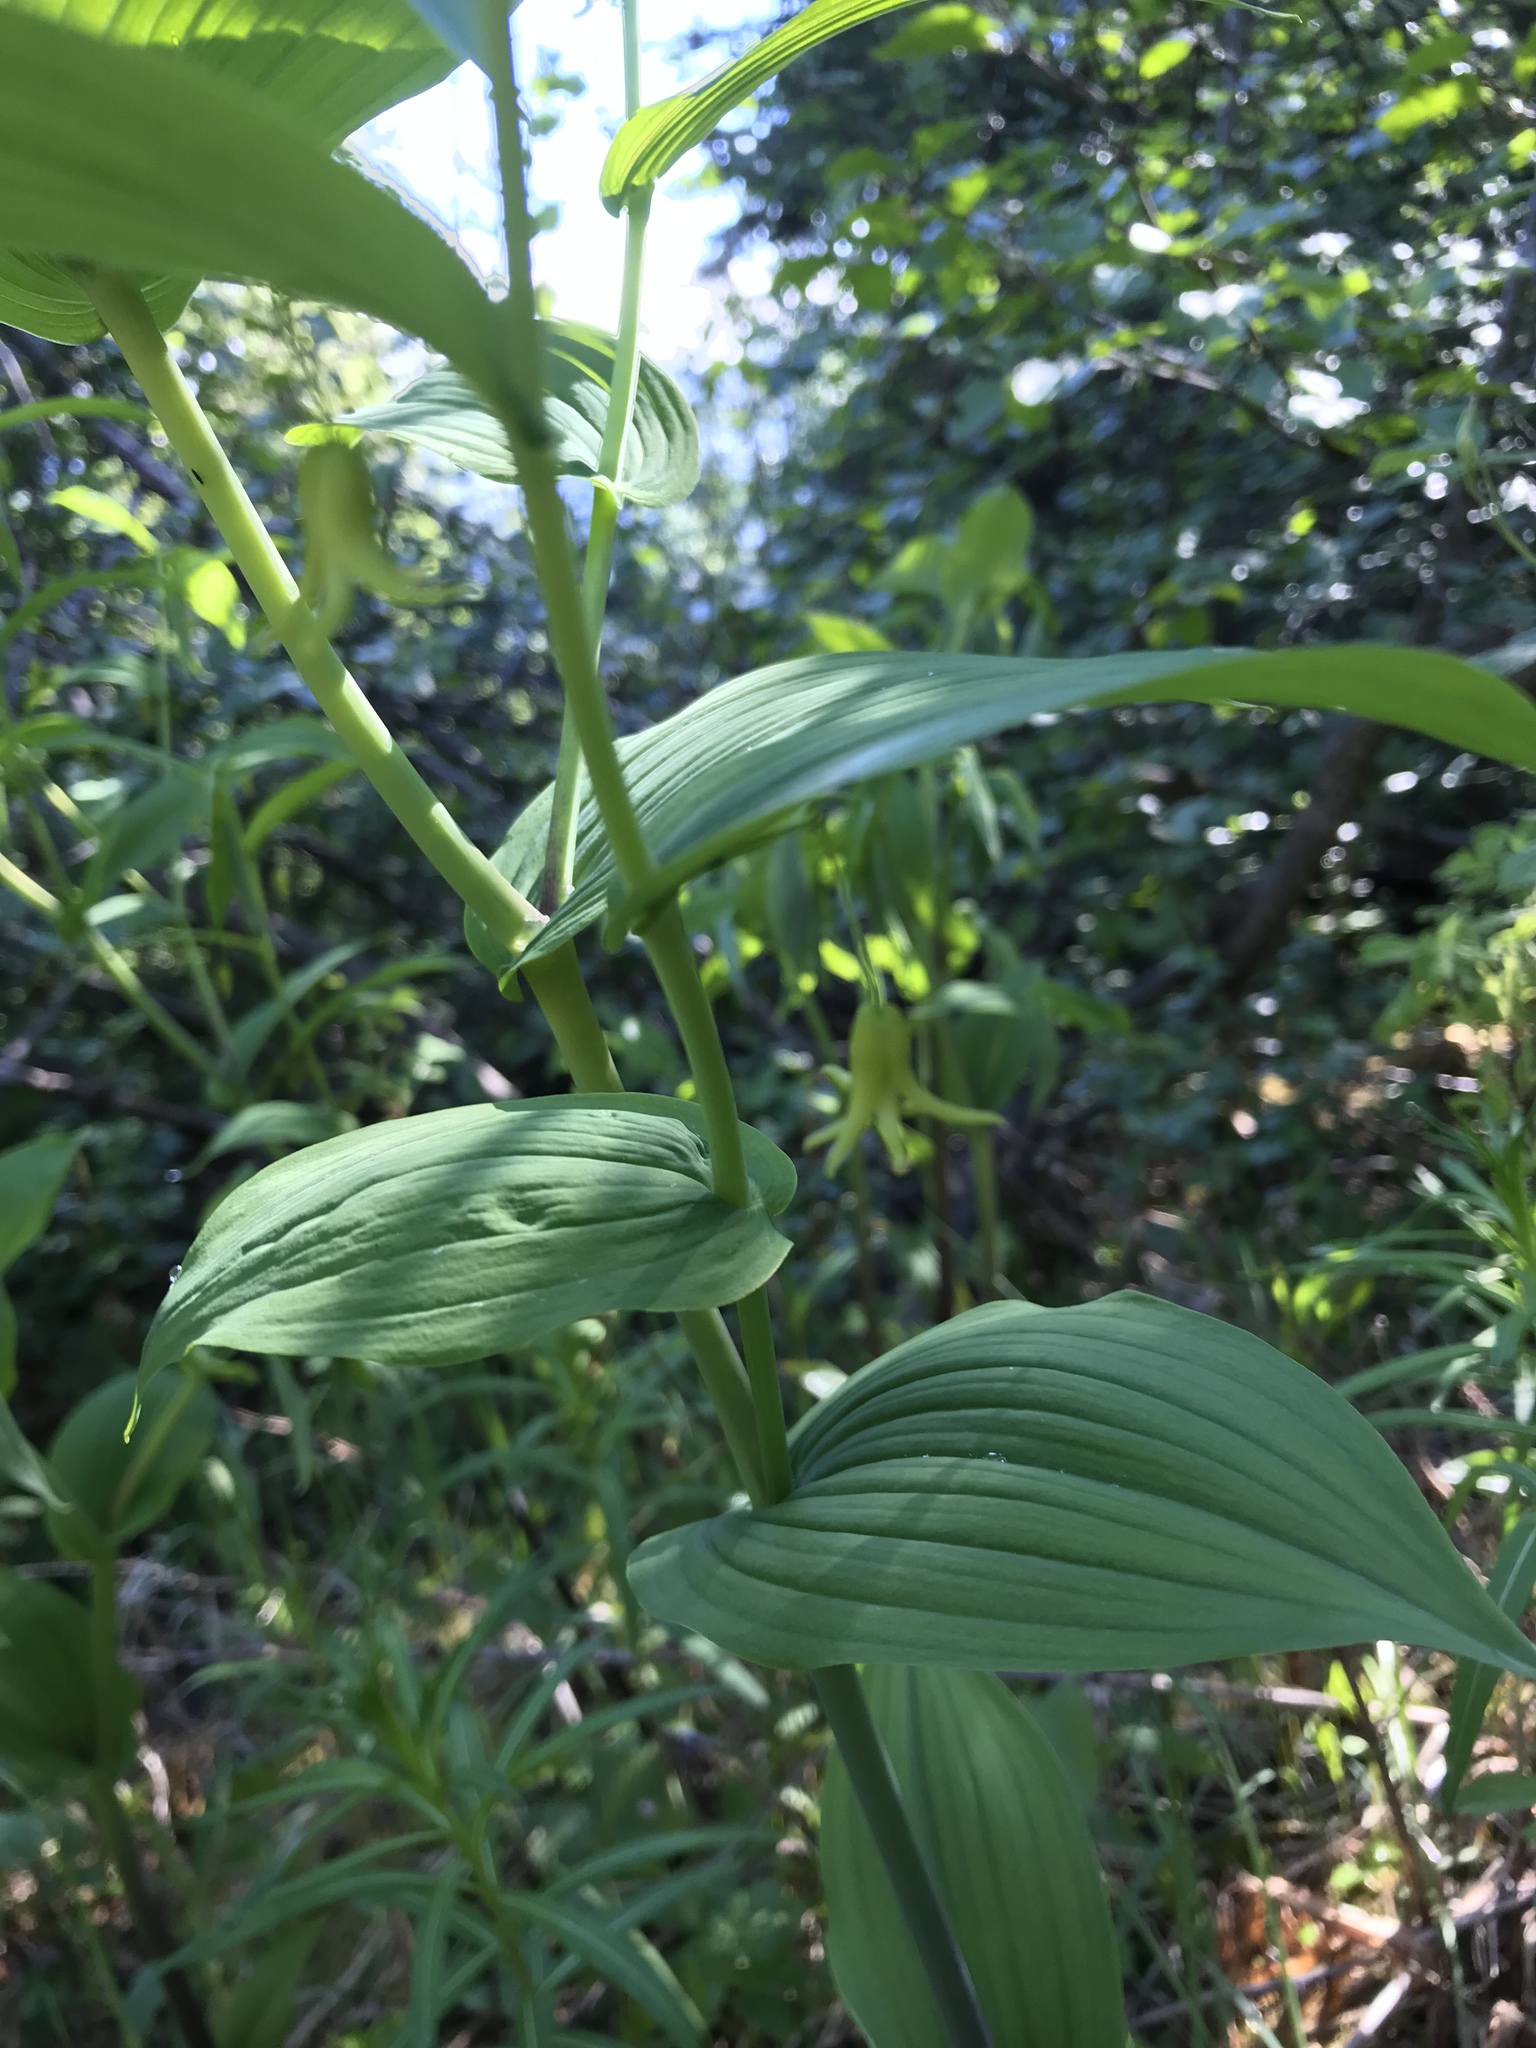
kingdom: Plantae
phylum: Tracheophyta
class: Liliopsida
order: Liliales
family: Liliaceae
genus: Streptopus
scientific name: Streptopus amplexifolius
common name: Clasp twisted stalk
